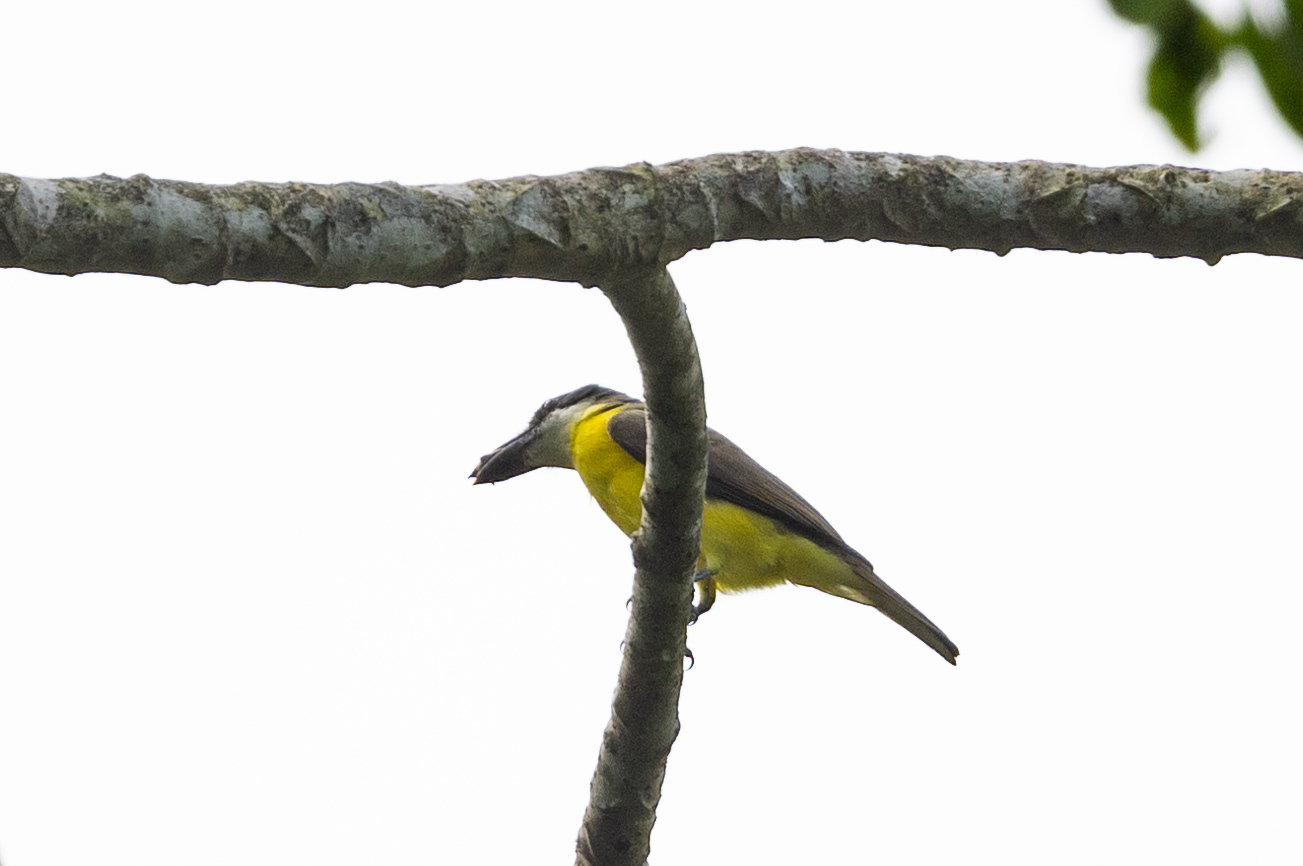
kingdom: Animalia
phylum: Chordata
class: Aves
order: Passeriformes
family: Tyrannidae
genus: Megarynchus
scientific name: Megarynchus pitangua
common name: Boat-billed flycatcher
